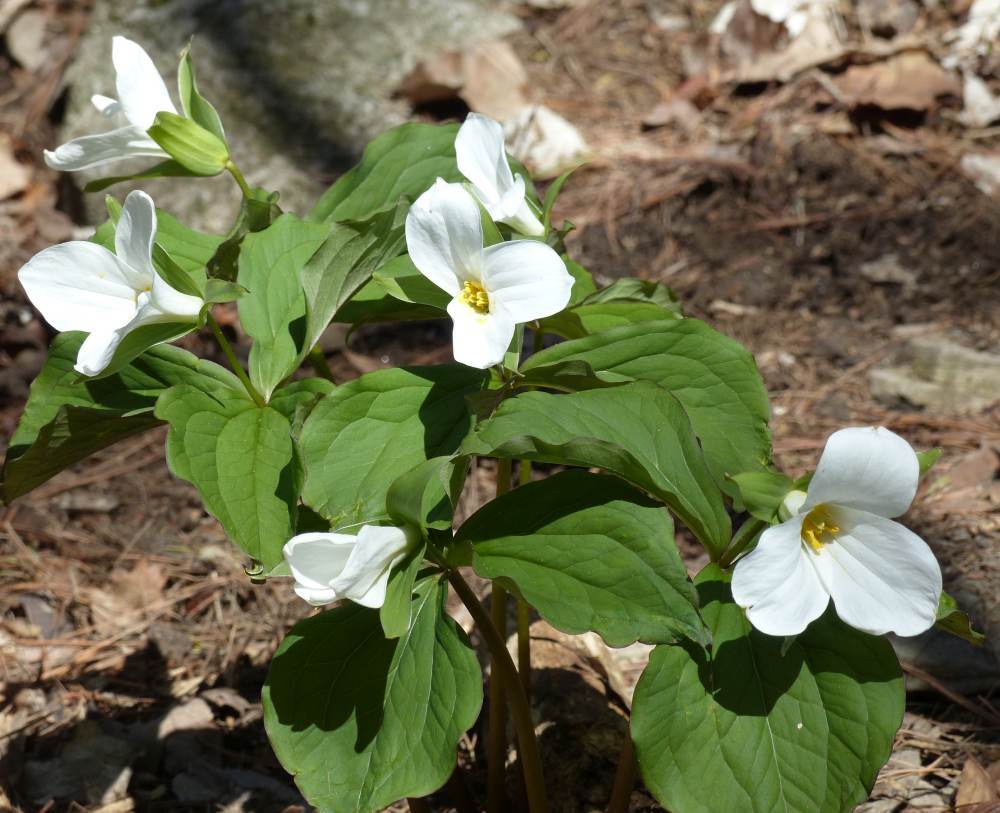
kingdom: Plantae
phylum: Tracheophyta
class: Liliopsida
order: Liliales
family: Melanthiaceae
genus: Trillium
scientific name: Trillium grandiflorum
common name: Great white trillium
